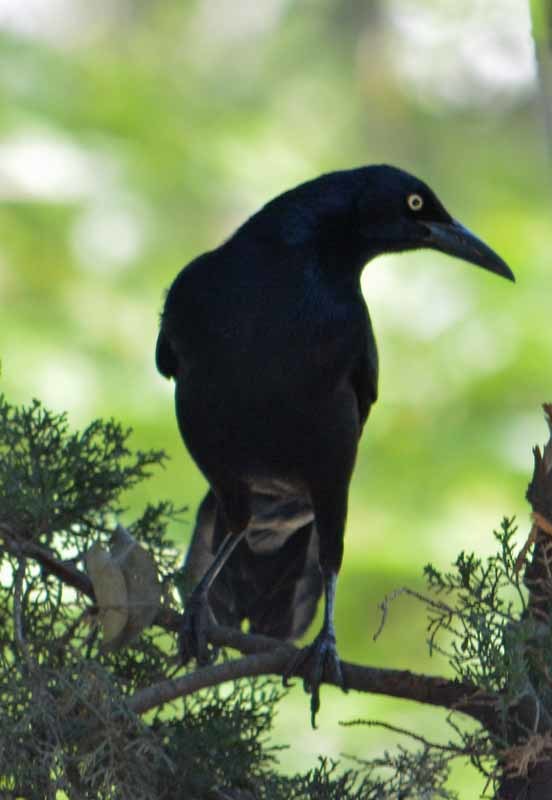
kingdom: Animalia
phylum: Chordata
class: Aves
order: Passeriformes
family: Icteridae
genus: Quiscalus
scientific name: Quiscalus mexicanus
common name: Great-tailed grackle
